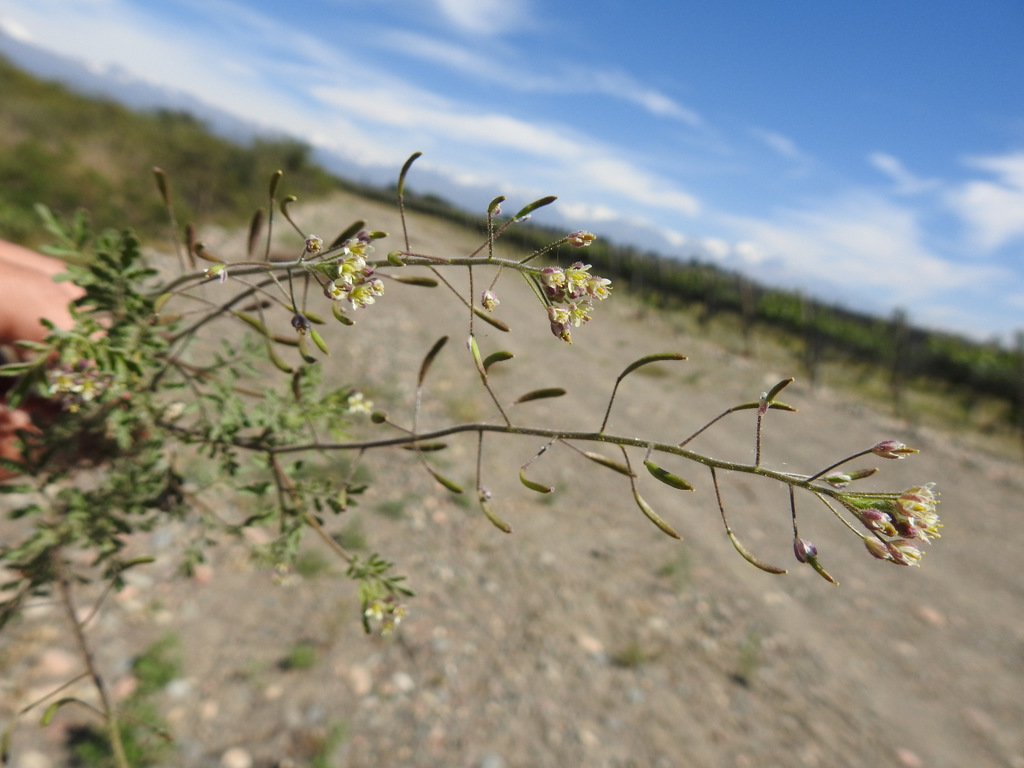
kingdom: Plantae
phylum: Tracheophyta
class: Magnoliopsida
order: Brassicales
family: Brassicaceae
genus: Descurainia
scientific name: Descurainia erodiifolia
